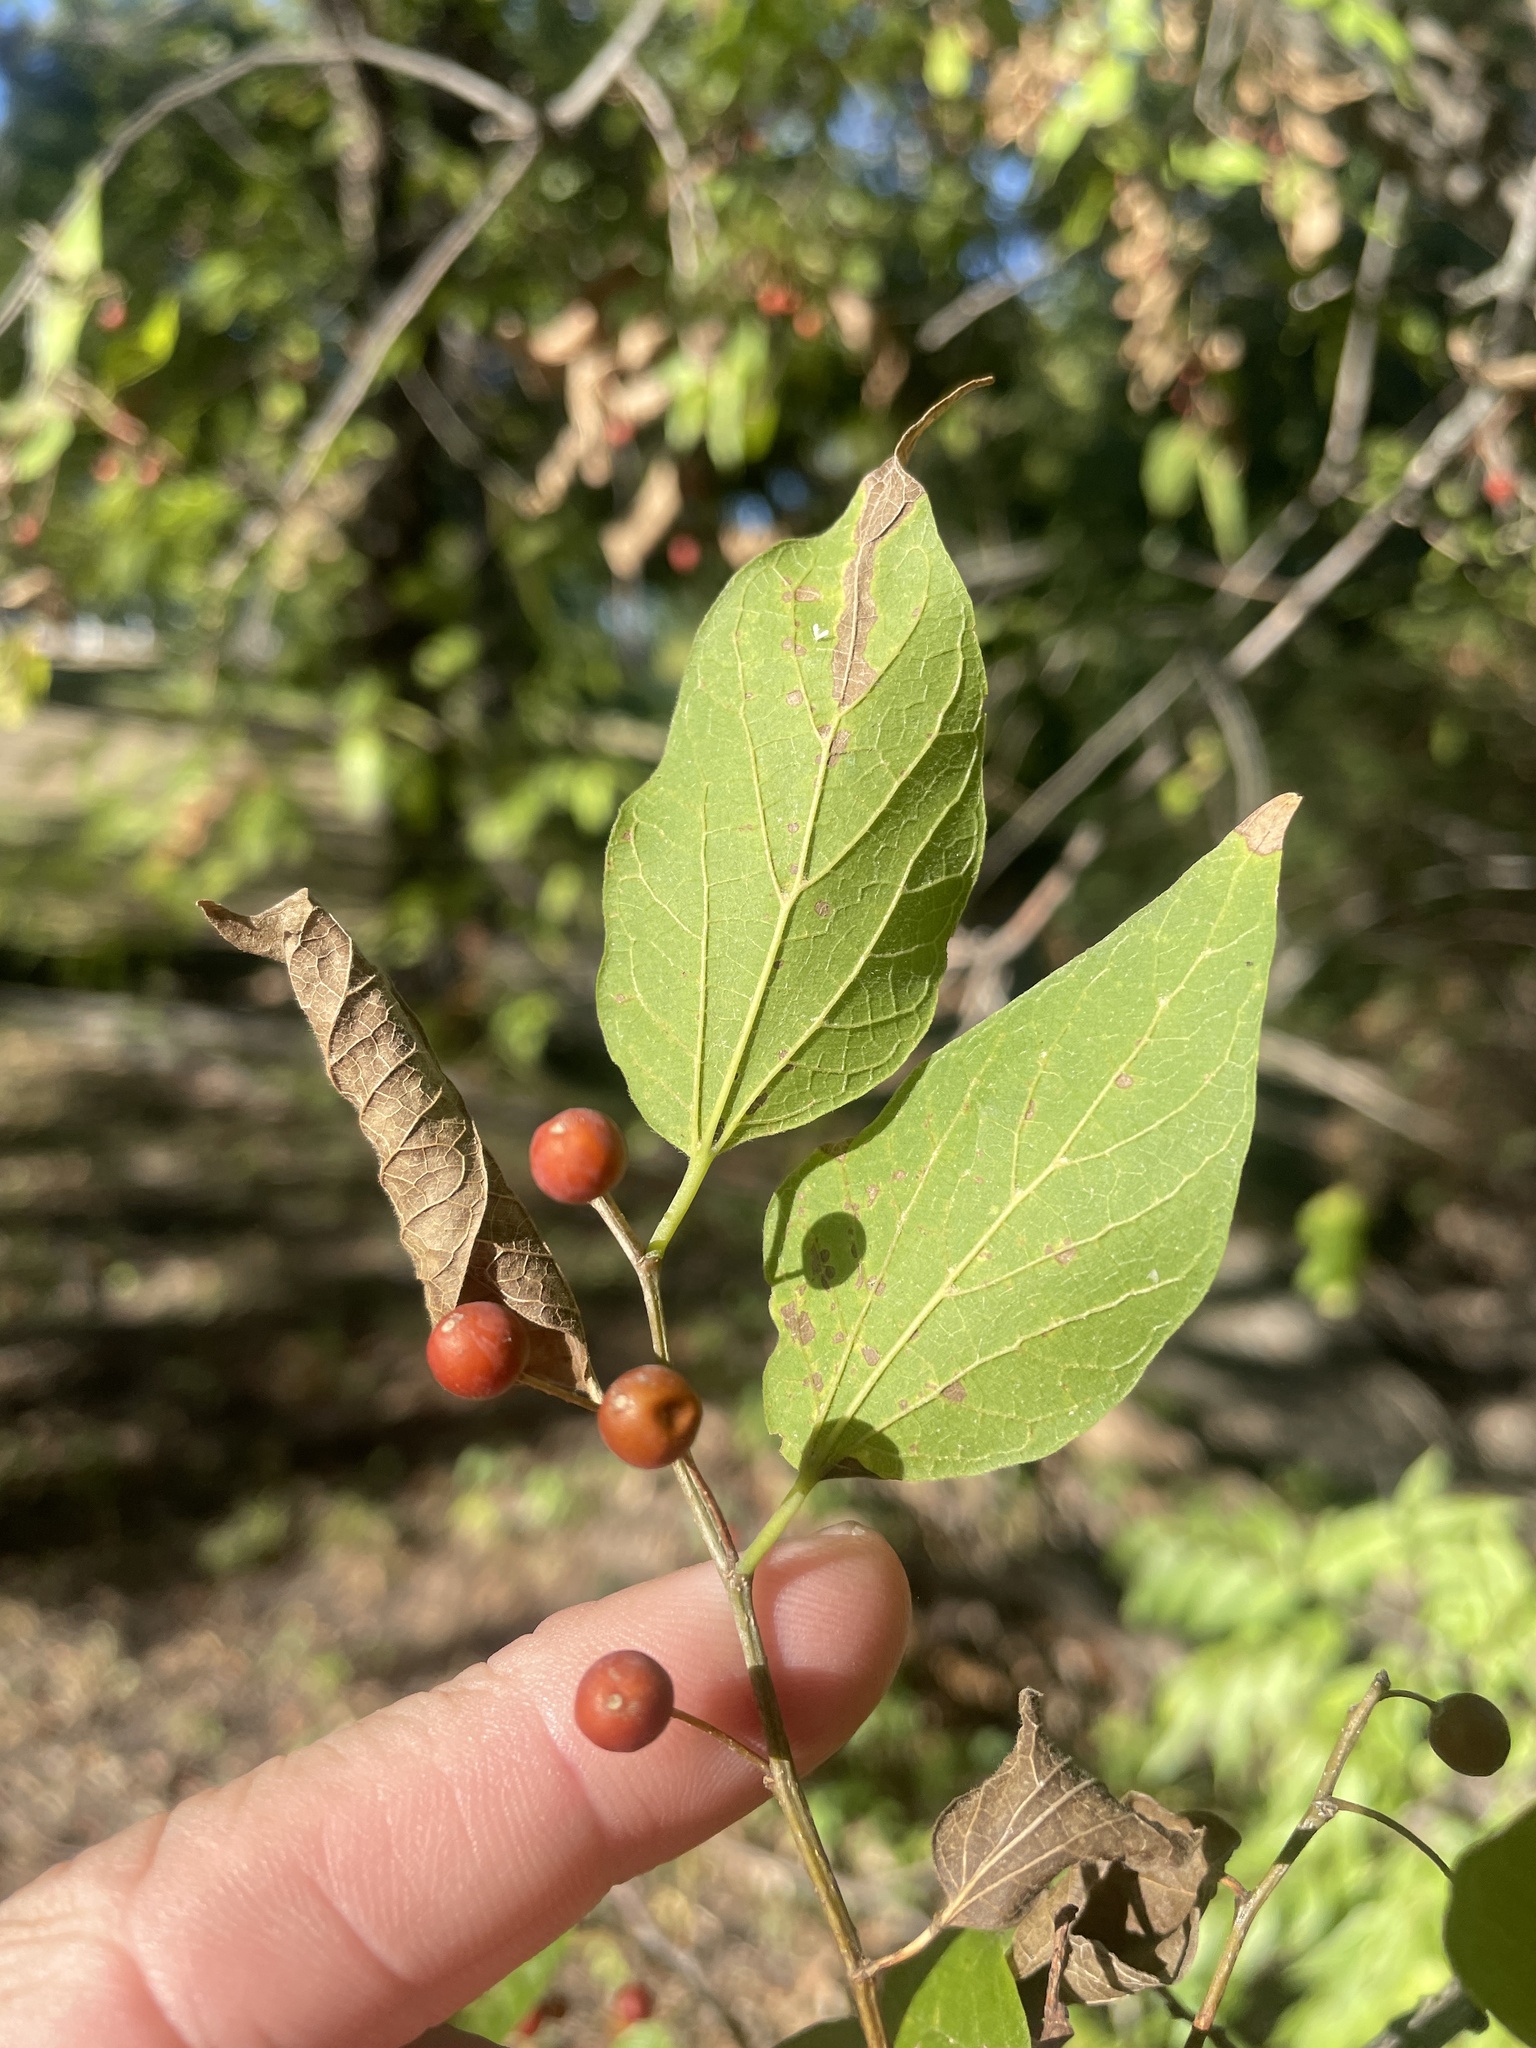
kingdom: Plantae
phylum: Tracheophyta
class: Magnoliopsida
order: Rosales
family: Cannabaceae
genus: Celtis
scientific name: Celtis laevigata
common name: Sugarberry
